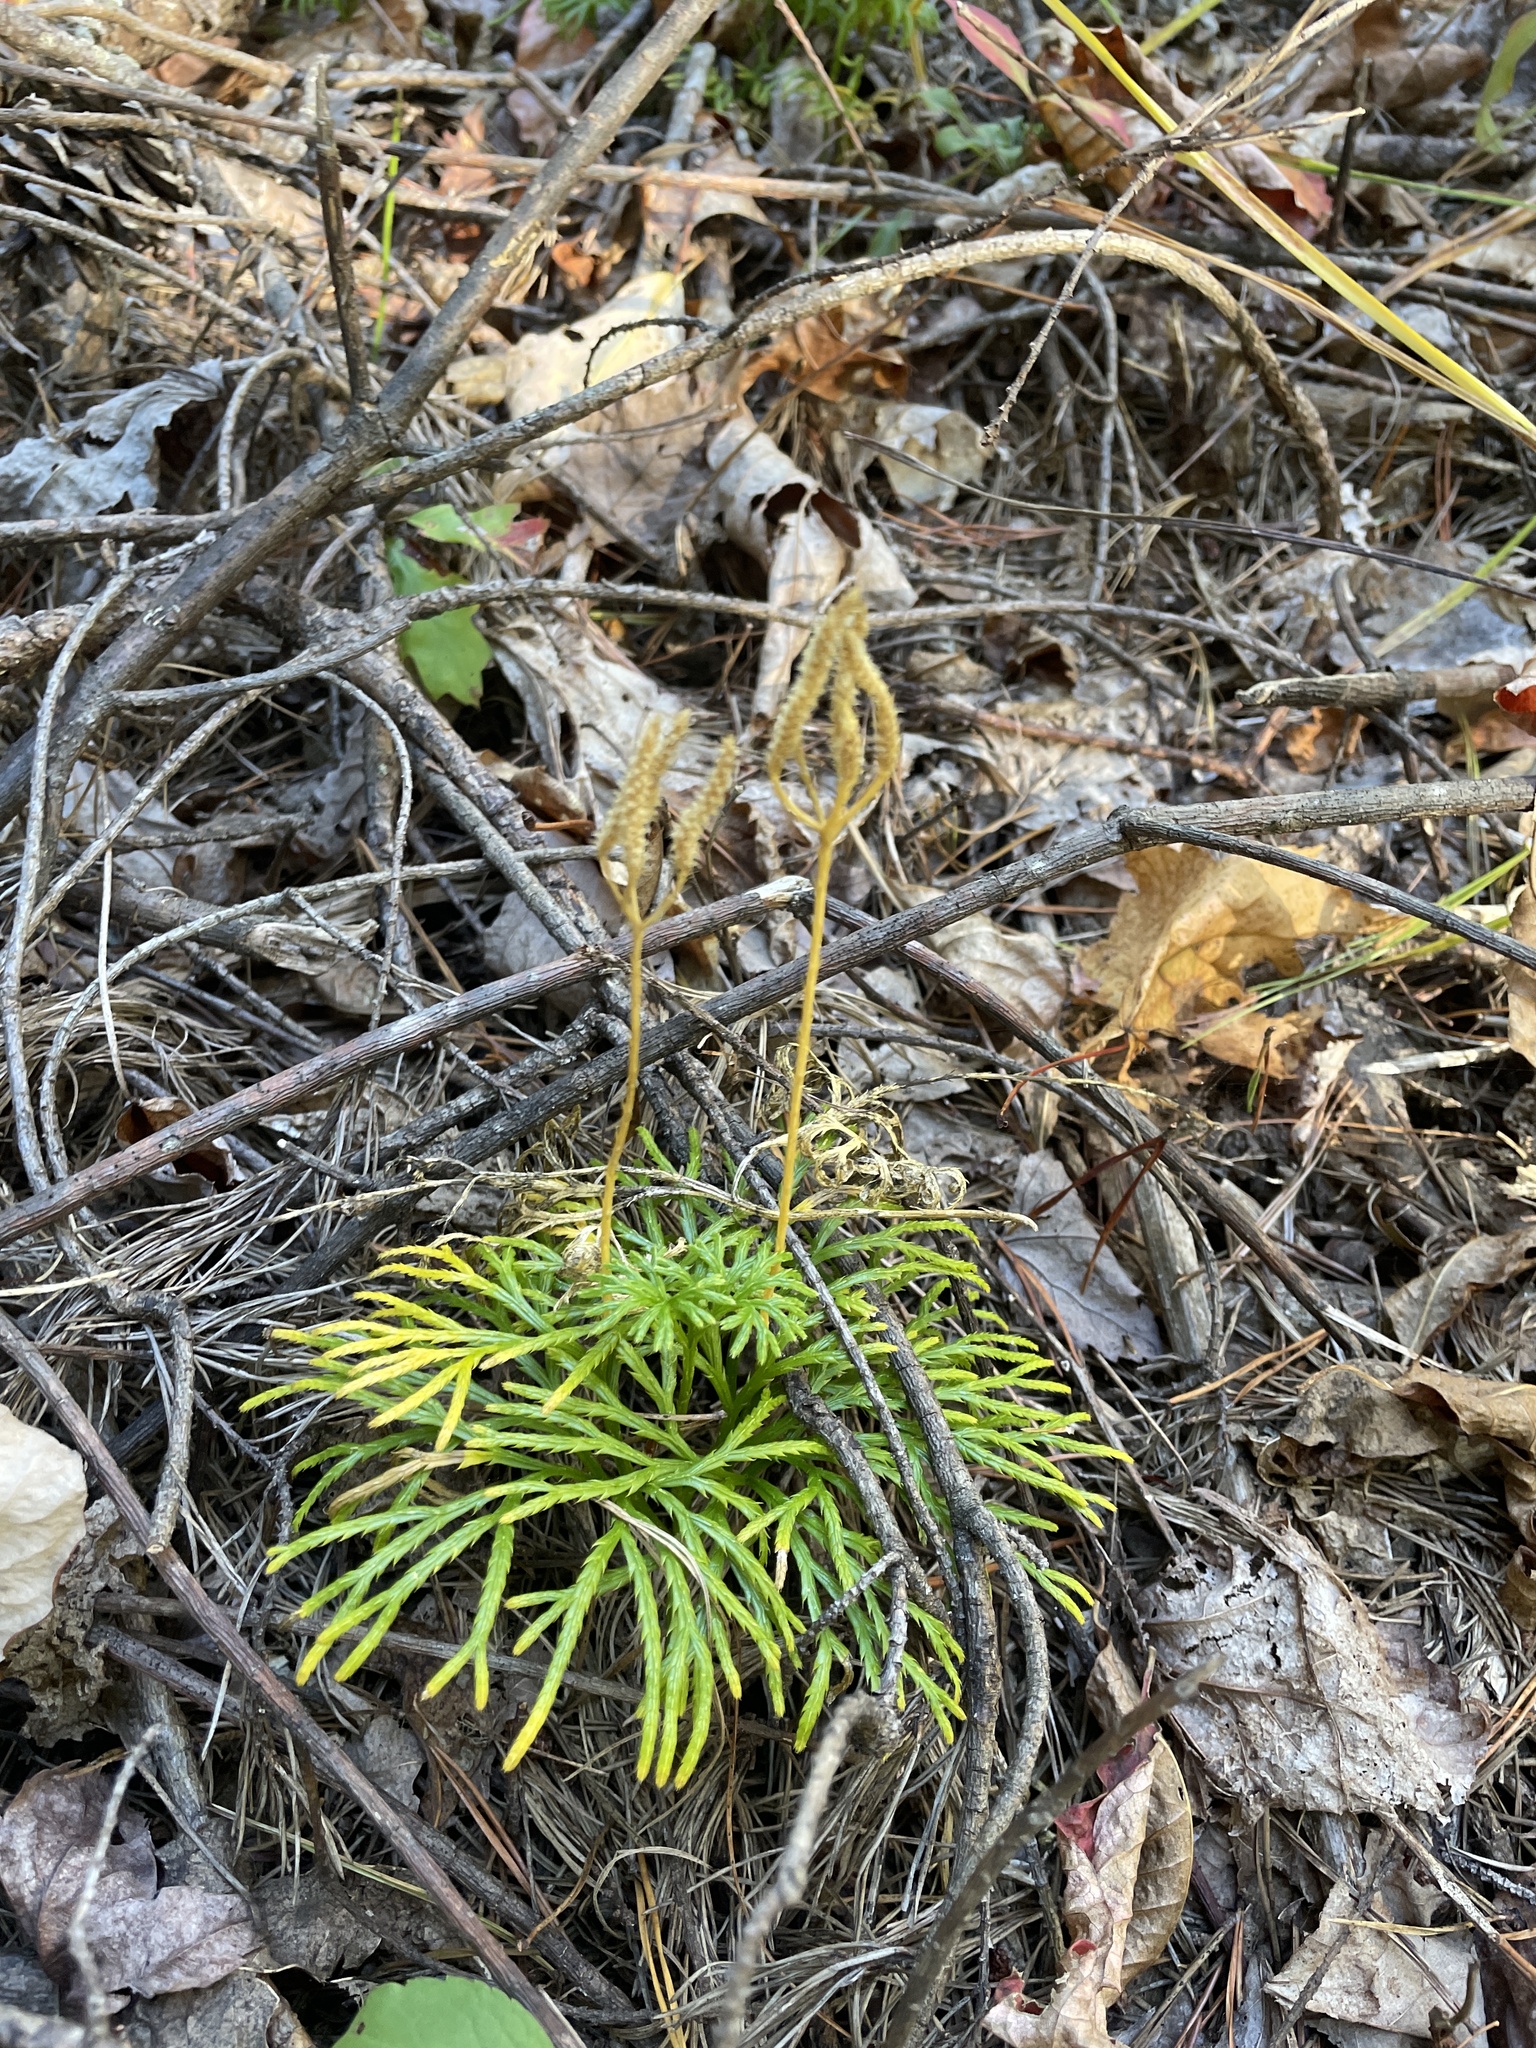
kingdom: Plantae
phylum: Tracheophyta
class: Lycopodiopsida
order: Lycopodiales
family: Lycopodiaceae
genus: Diphasiastrum
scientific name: Diphasiastrum digitatum
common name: Southern running-pine
